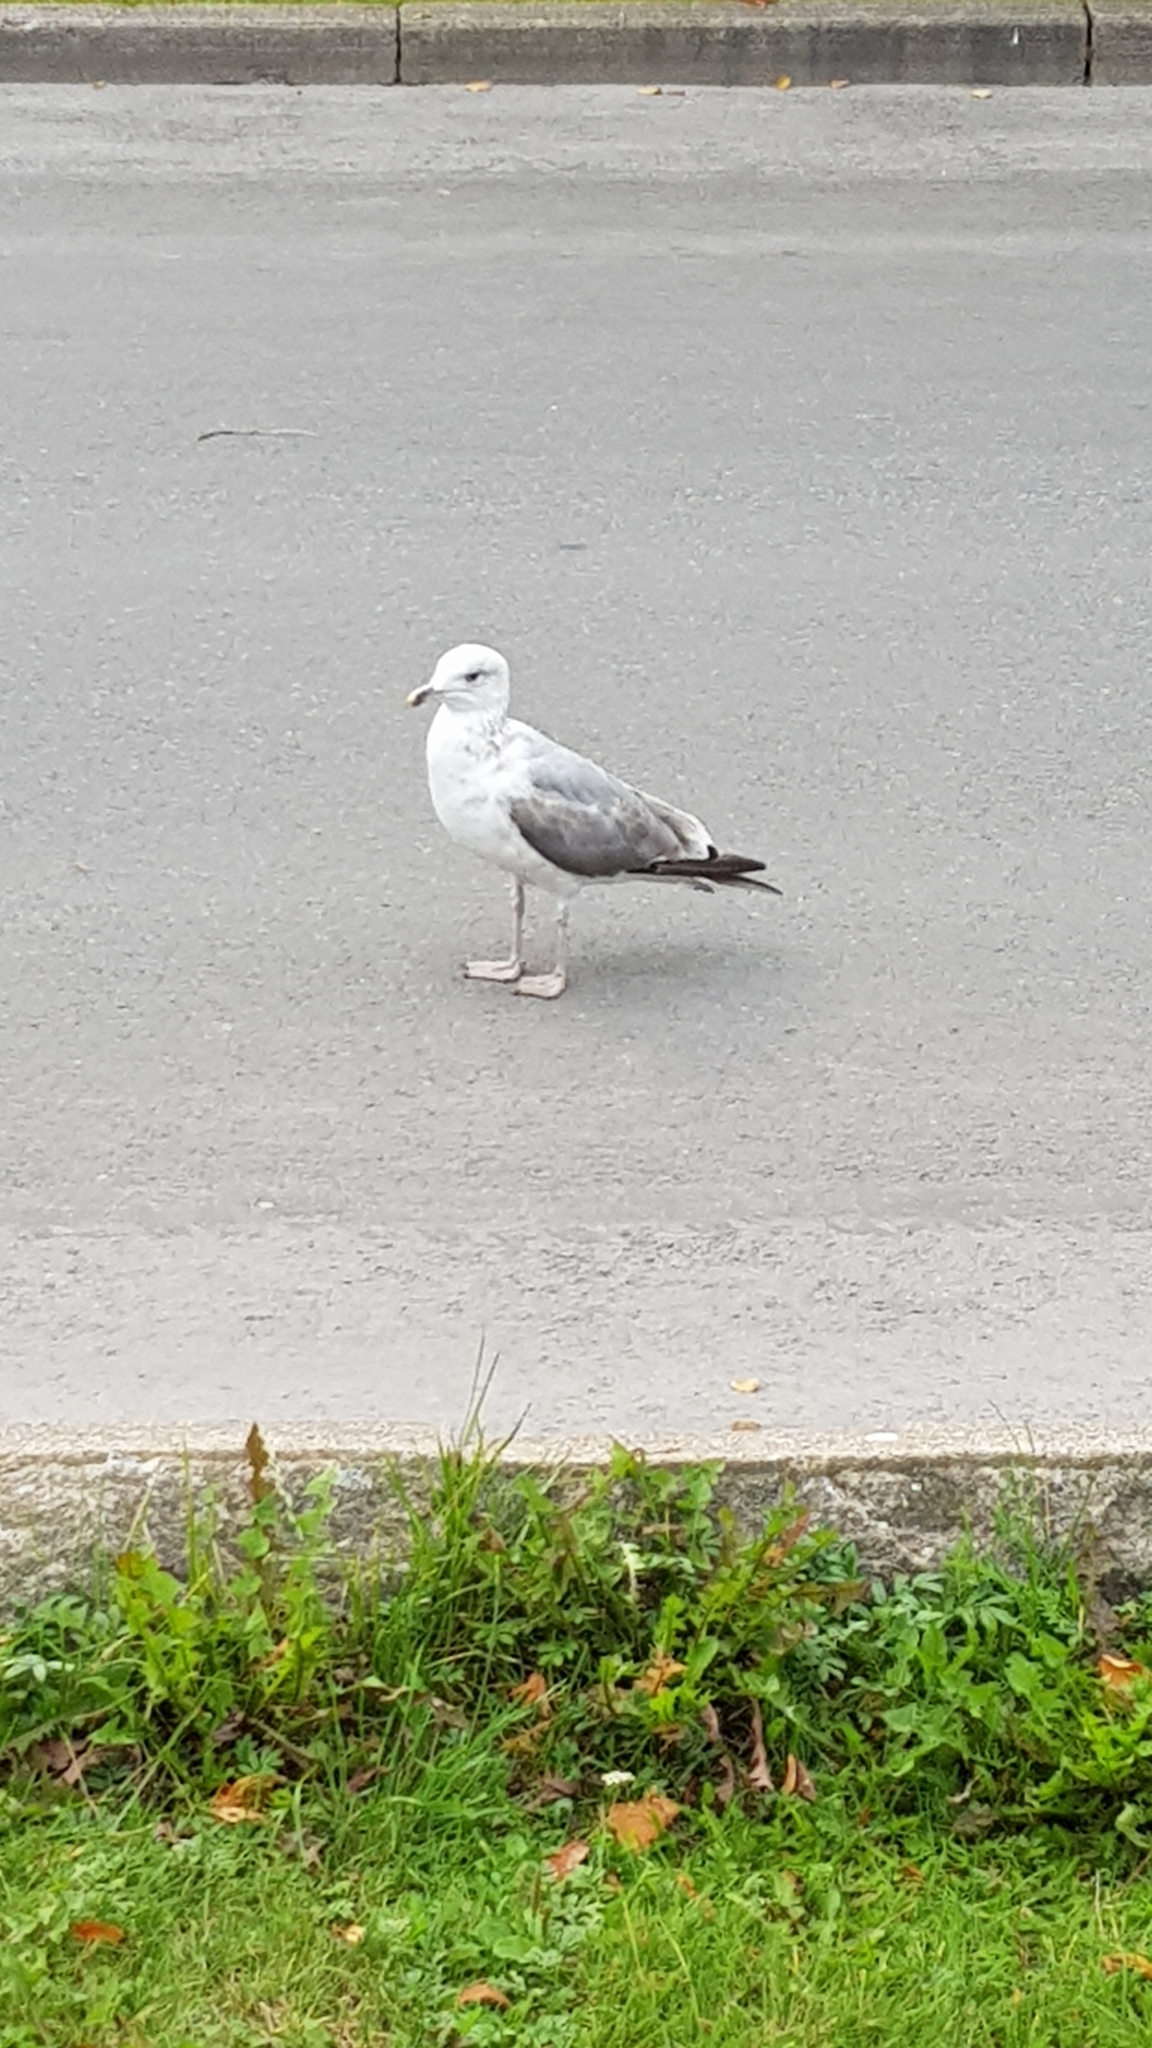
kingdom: Animalia
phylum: Chordata
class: Aves
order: Charadriiformes
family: Laridae
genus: Larus
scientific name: Larus argentatus
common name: Herring gull
